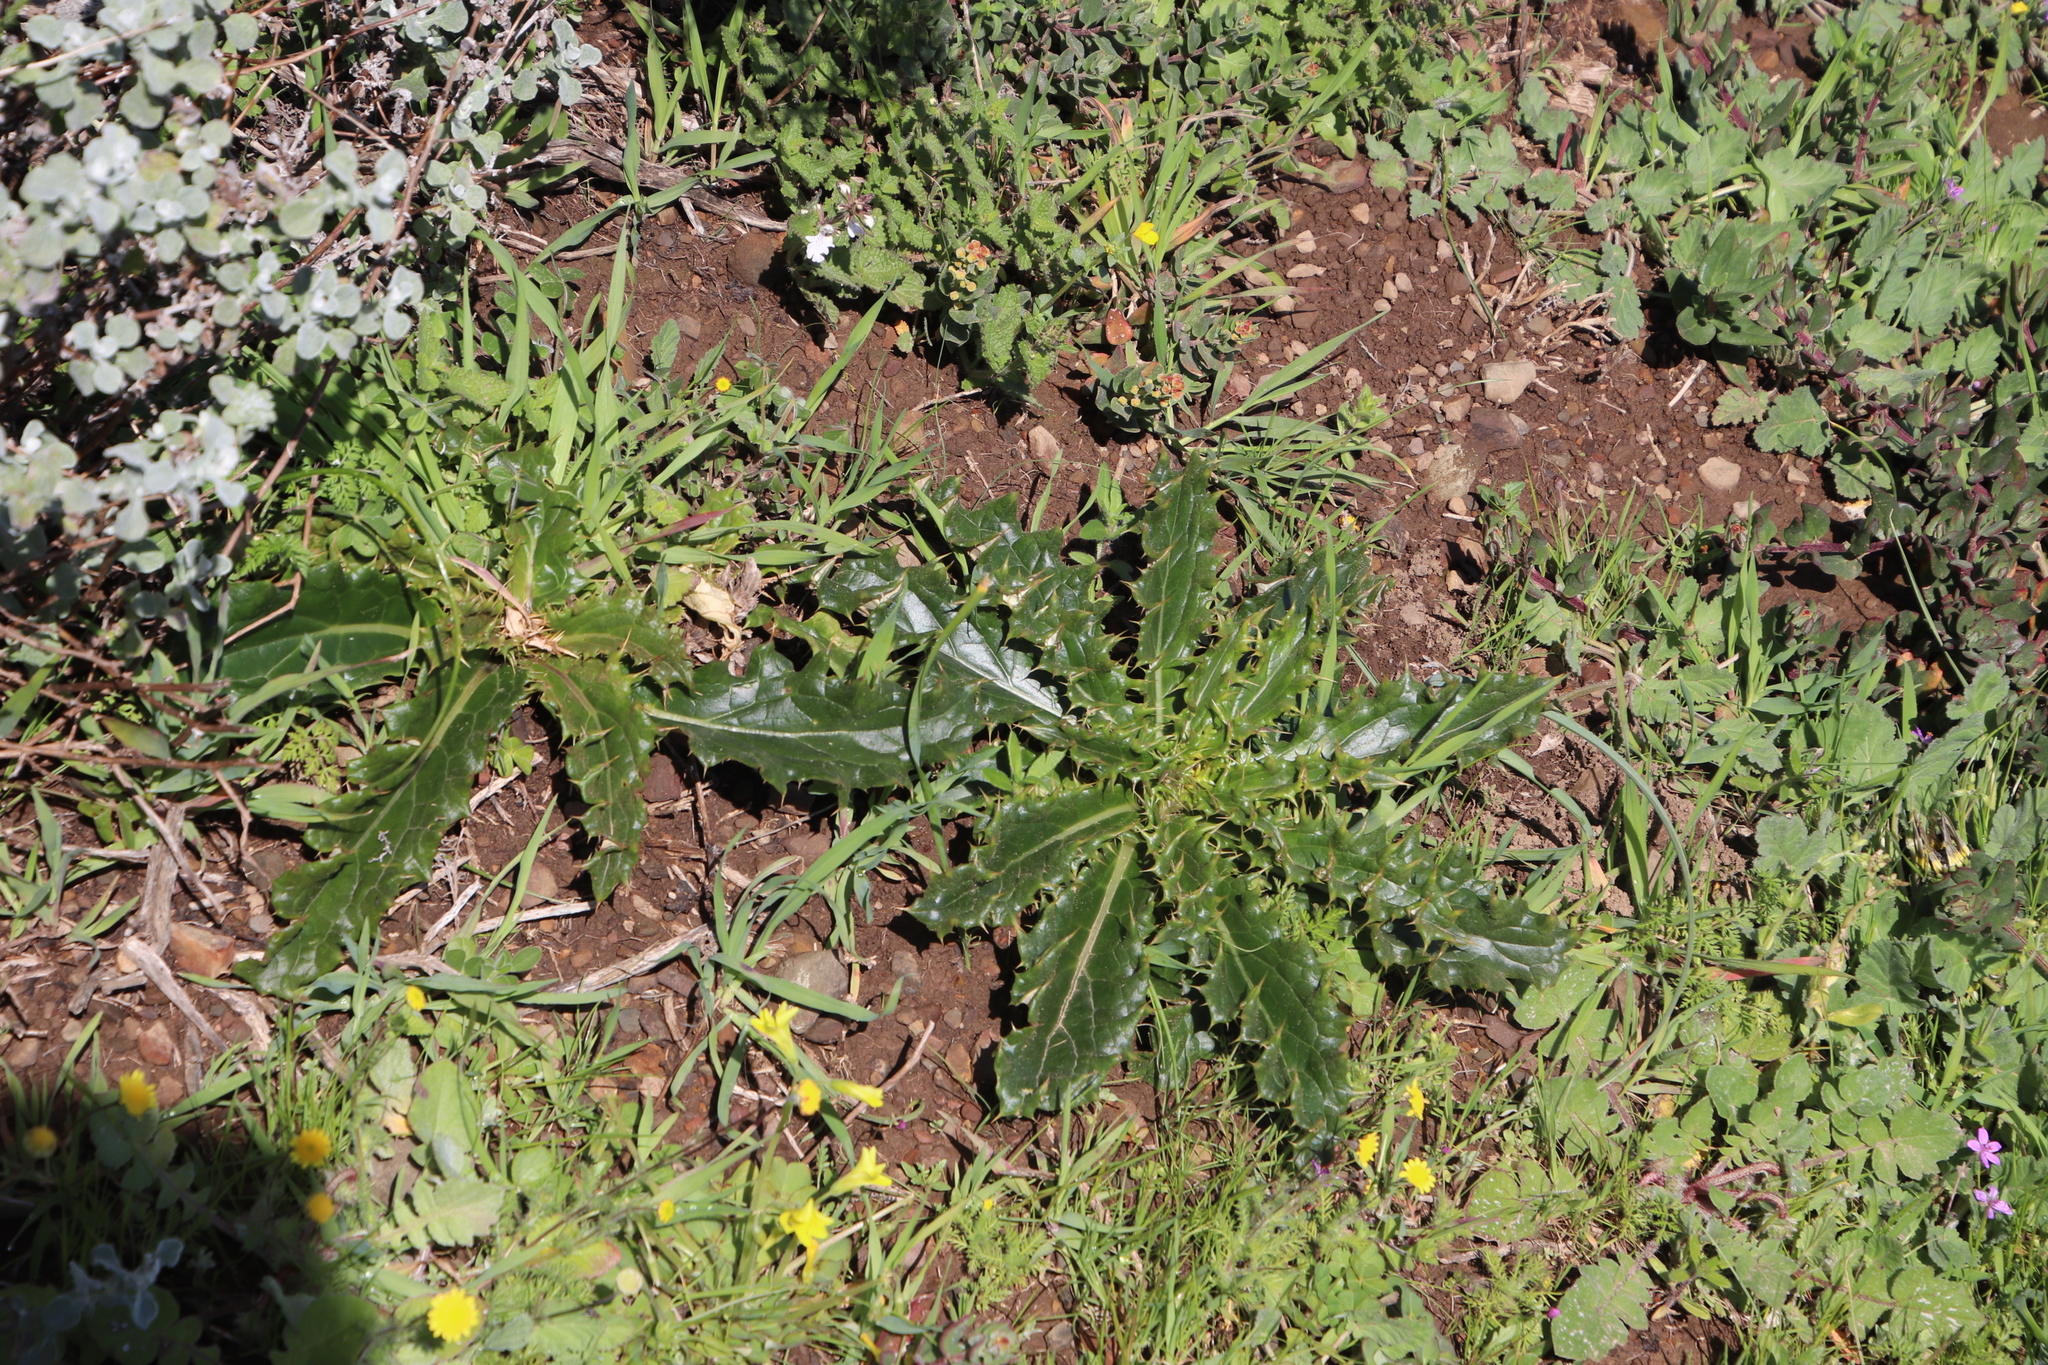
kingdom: Plantae
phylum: Tracheophyta
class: Magnoliopsida
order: Asterales
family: Asteraceae
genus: Berkheya
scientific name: Berkheya armata
